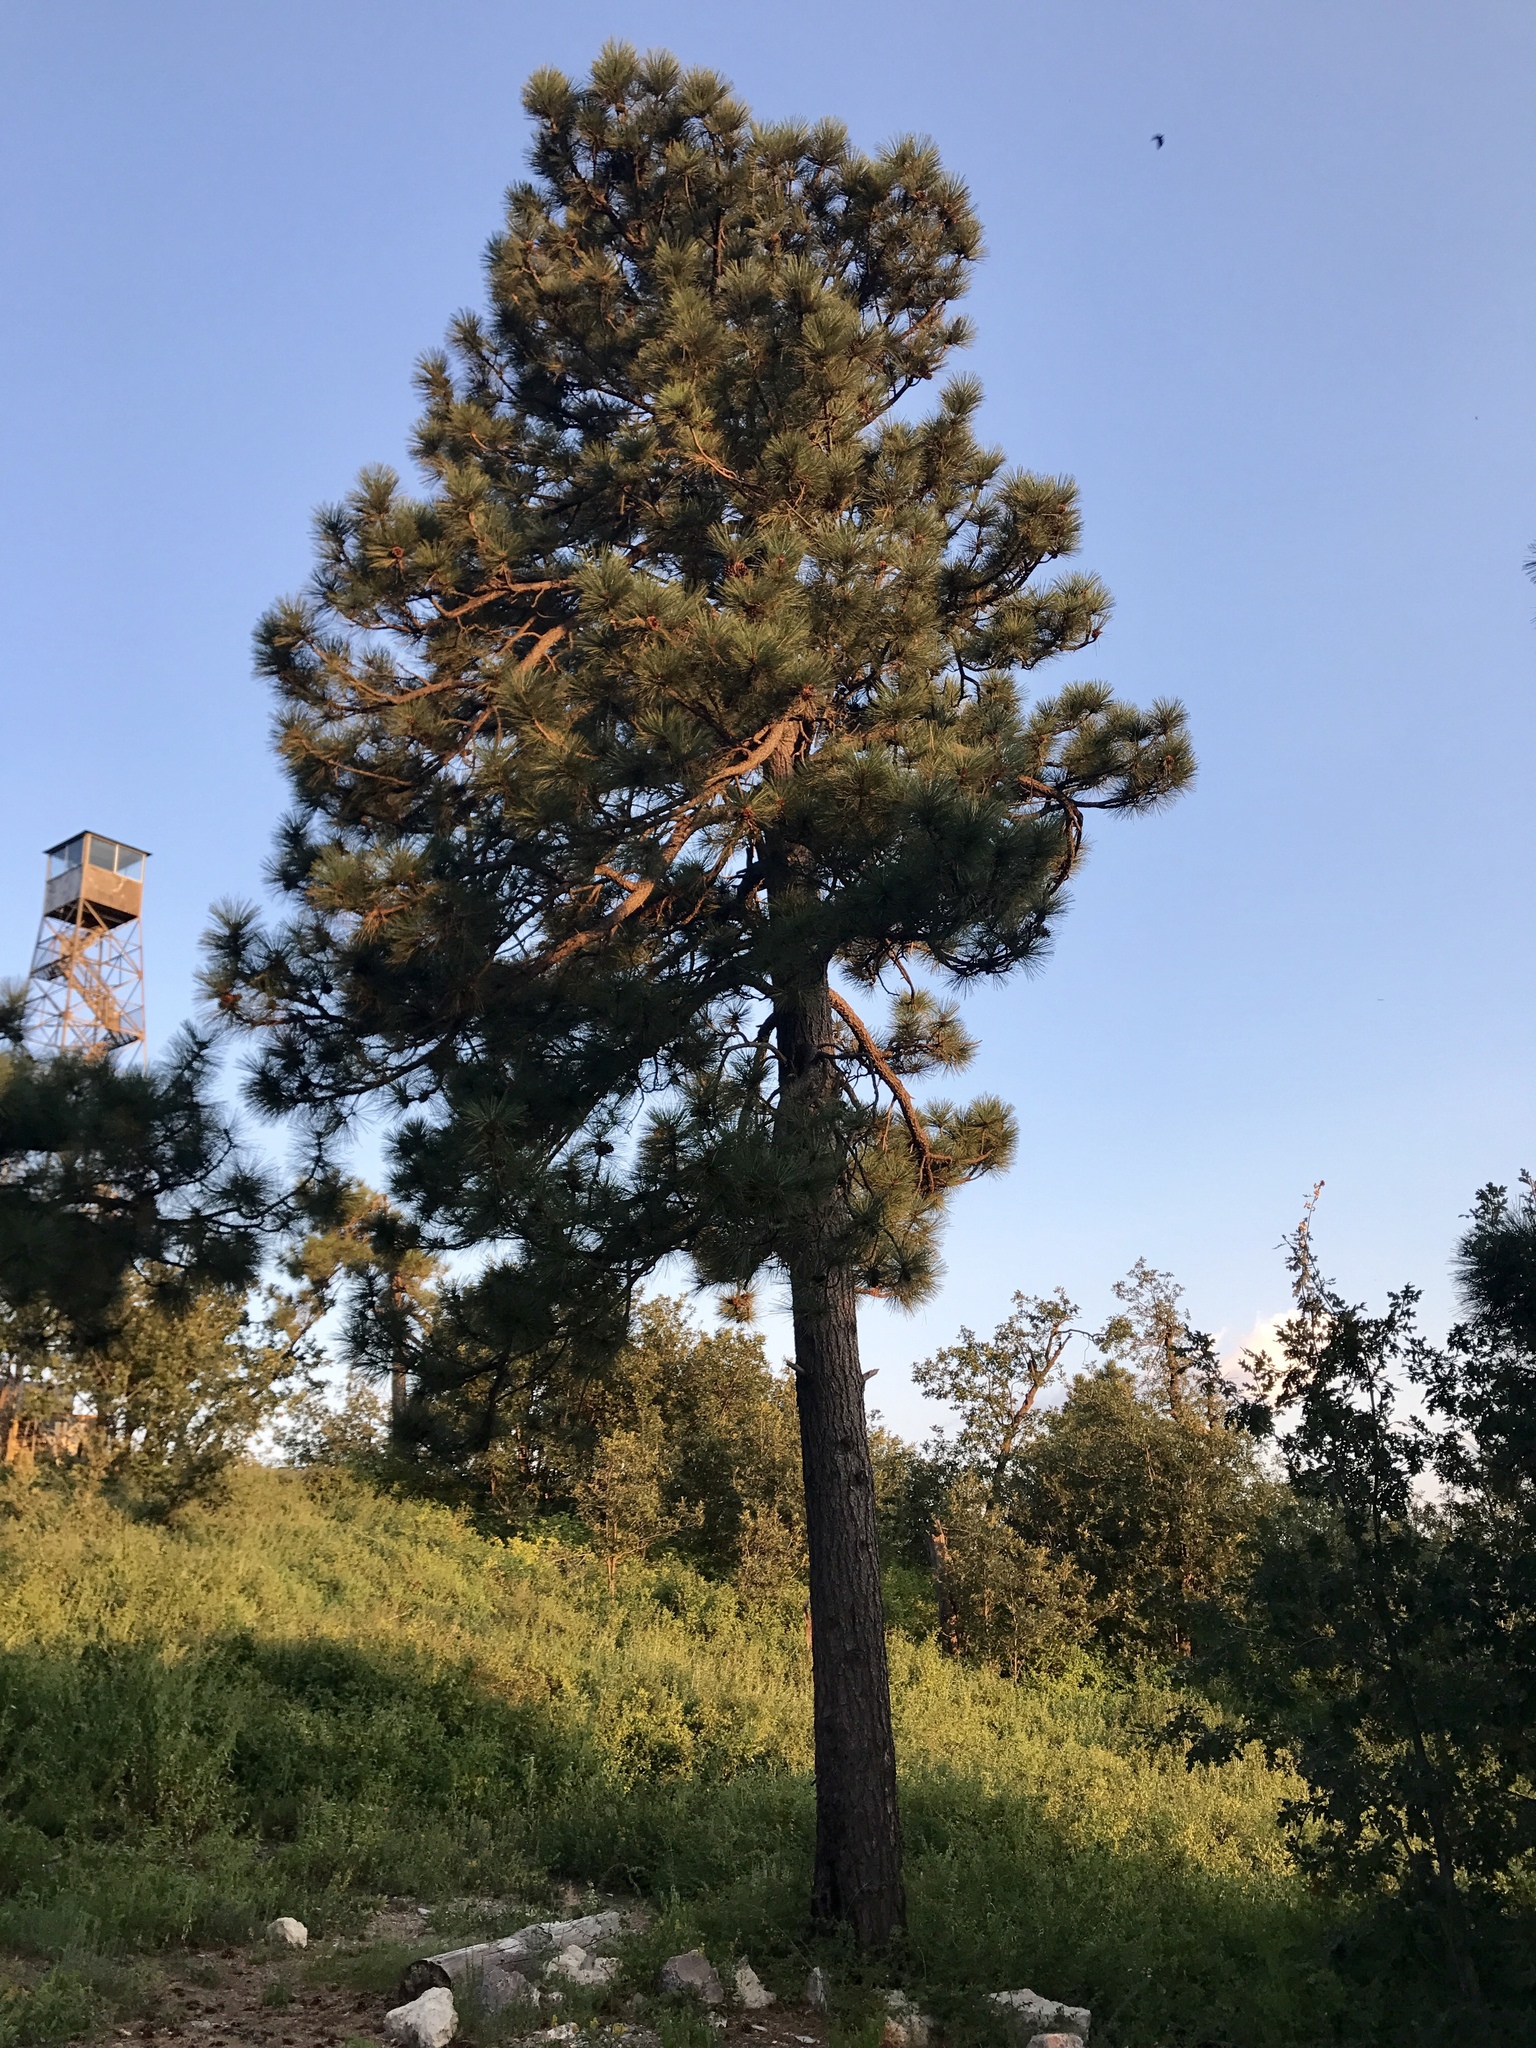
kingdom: Plantae
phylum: Tracheophyta
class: Pinopsida
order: Pinales
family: Pinaceae
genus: Pinus
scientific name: Pinus ponderosa
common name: Western yellow-pine
